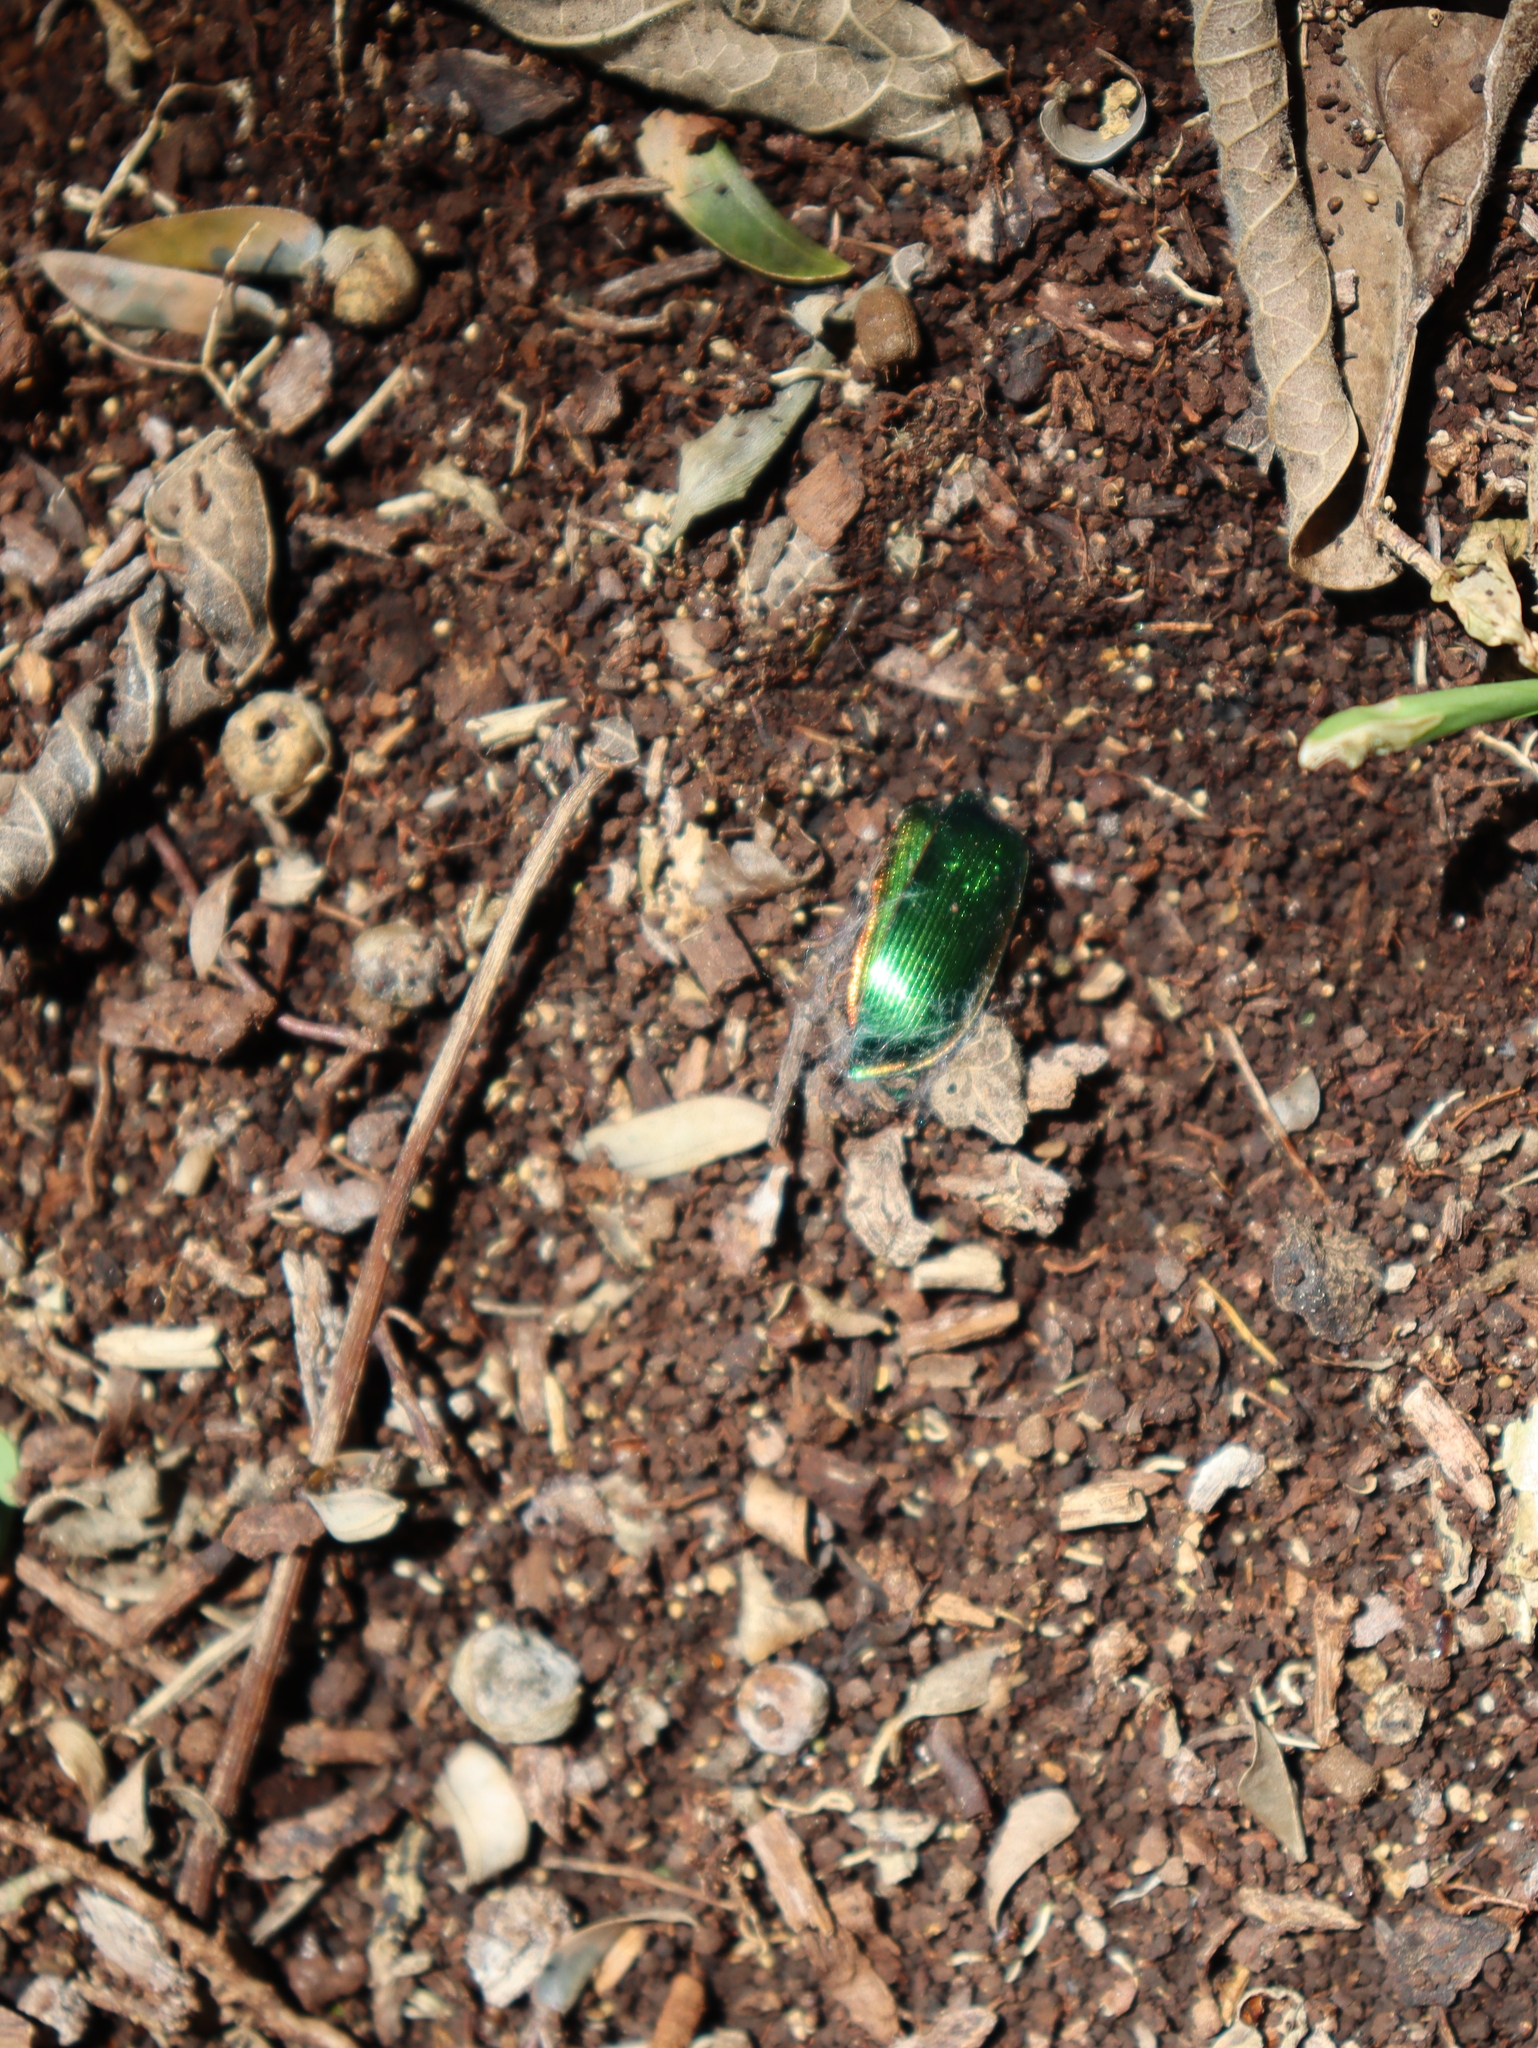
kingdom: Animalia
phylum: Arthropoda
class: Insecta
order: Coleoptera
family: Carabidae
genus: Calosoma
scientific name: Calosoma aurocinctum
